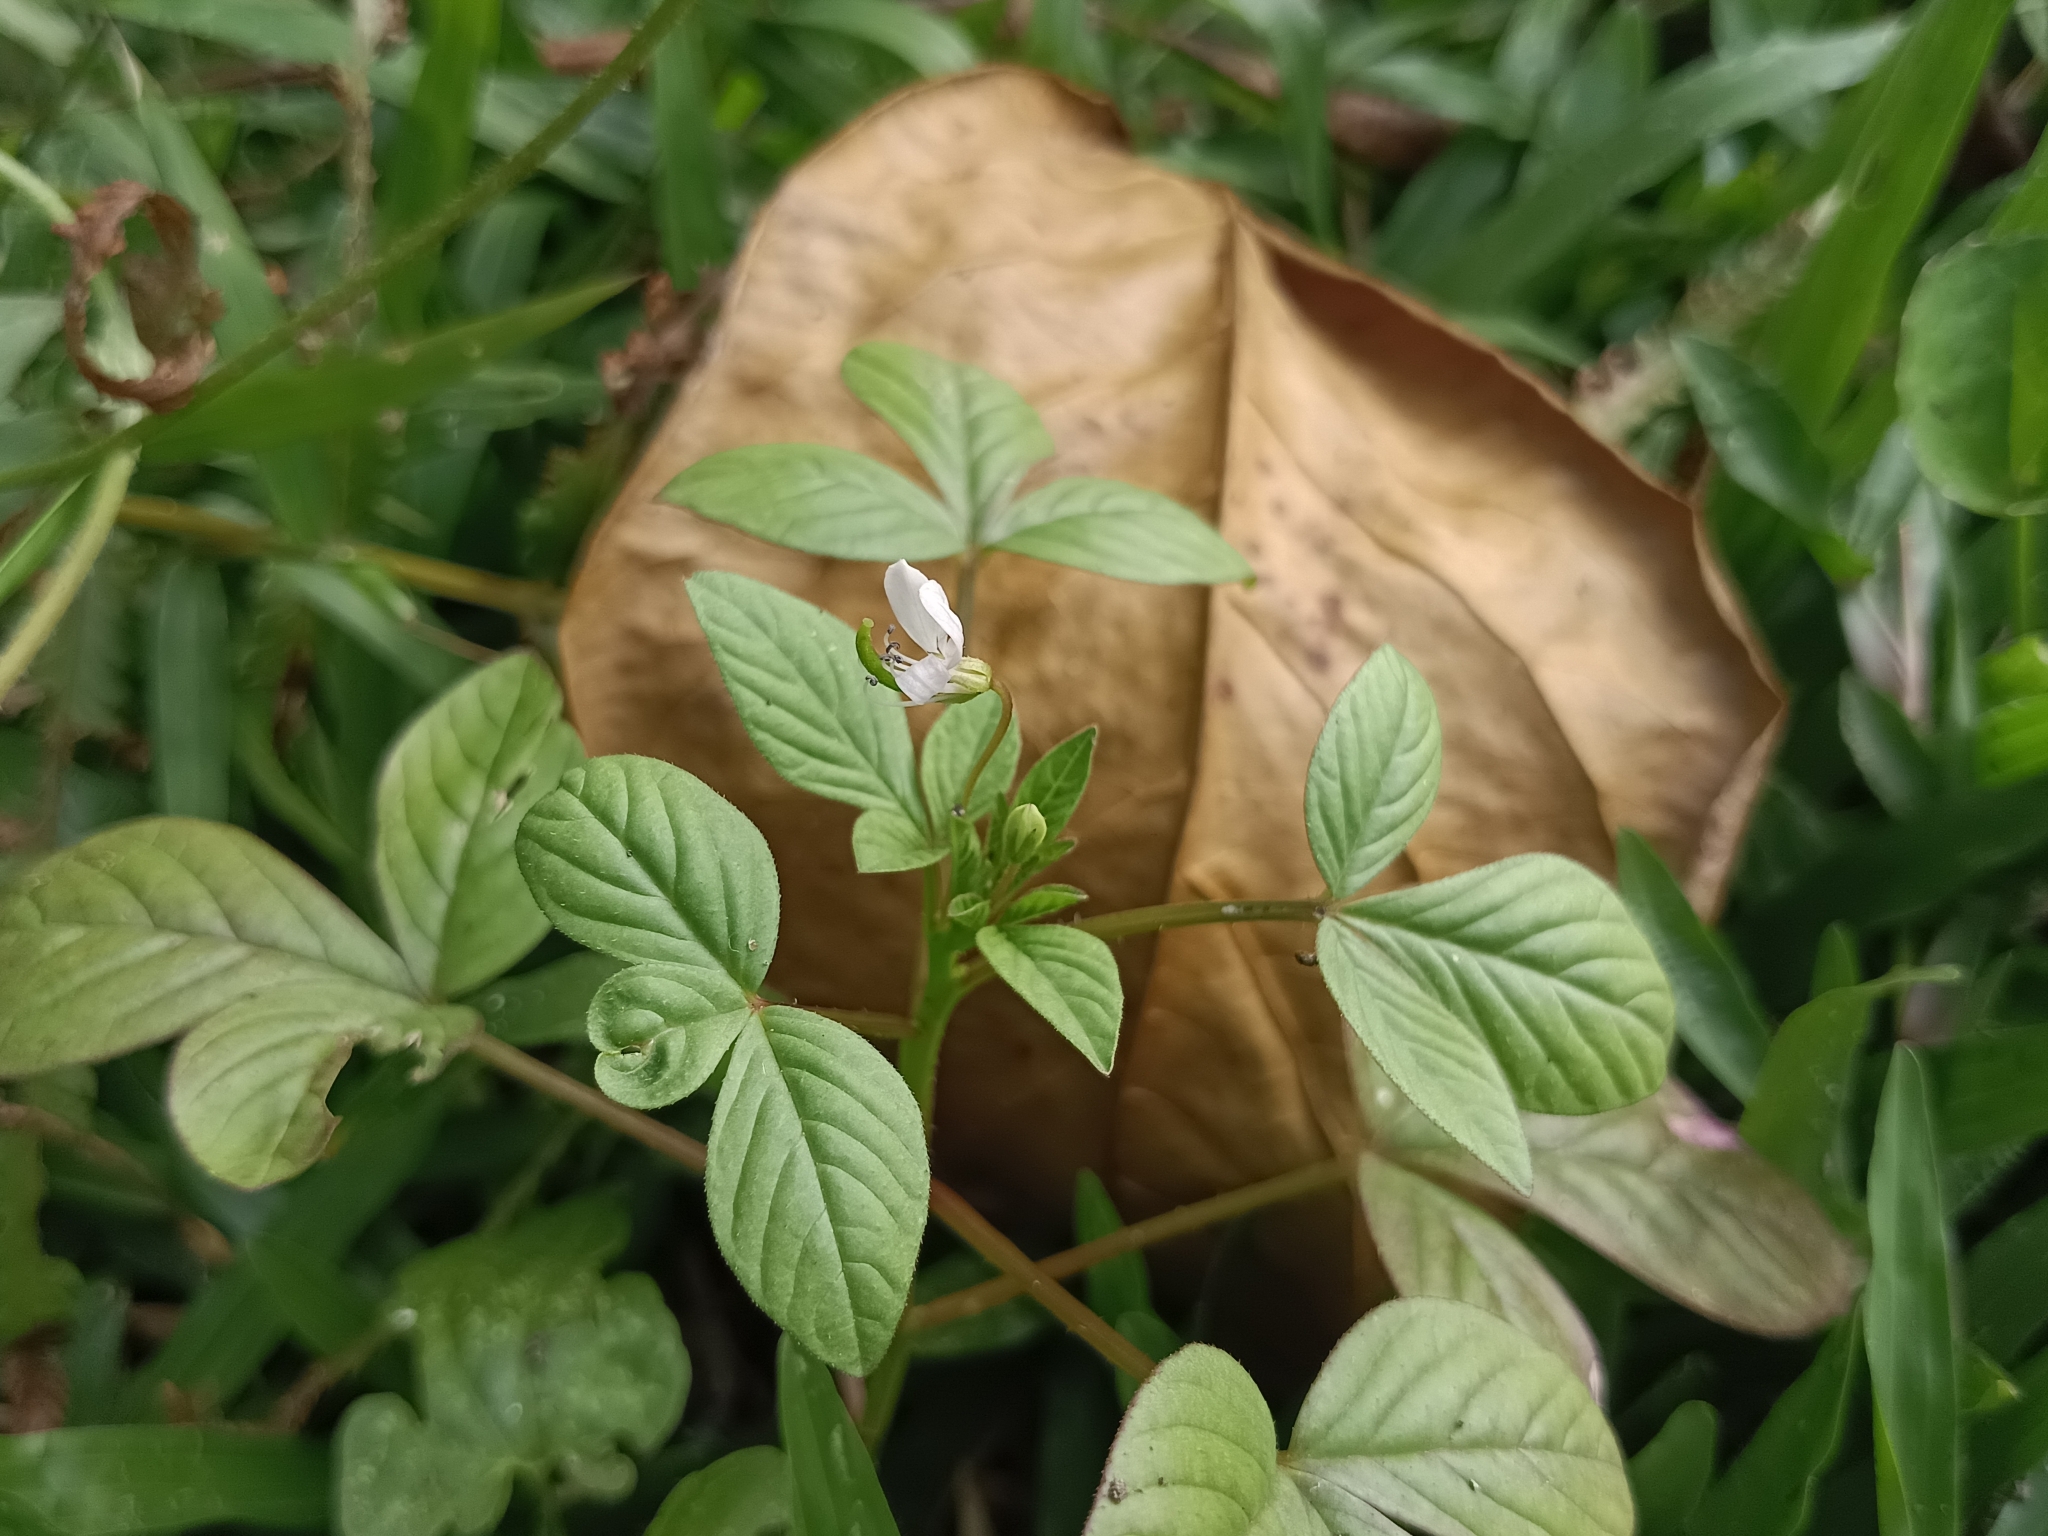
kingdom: Plantae
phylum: Tracheophyta
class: Magnoliopsida
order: Brassicales
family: Cleomaceae
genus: Sieruela
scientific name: Sieruela rutidosperma
